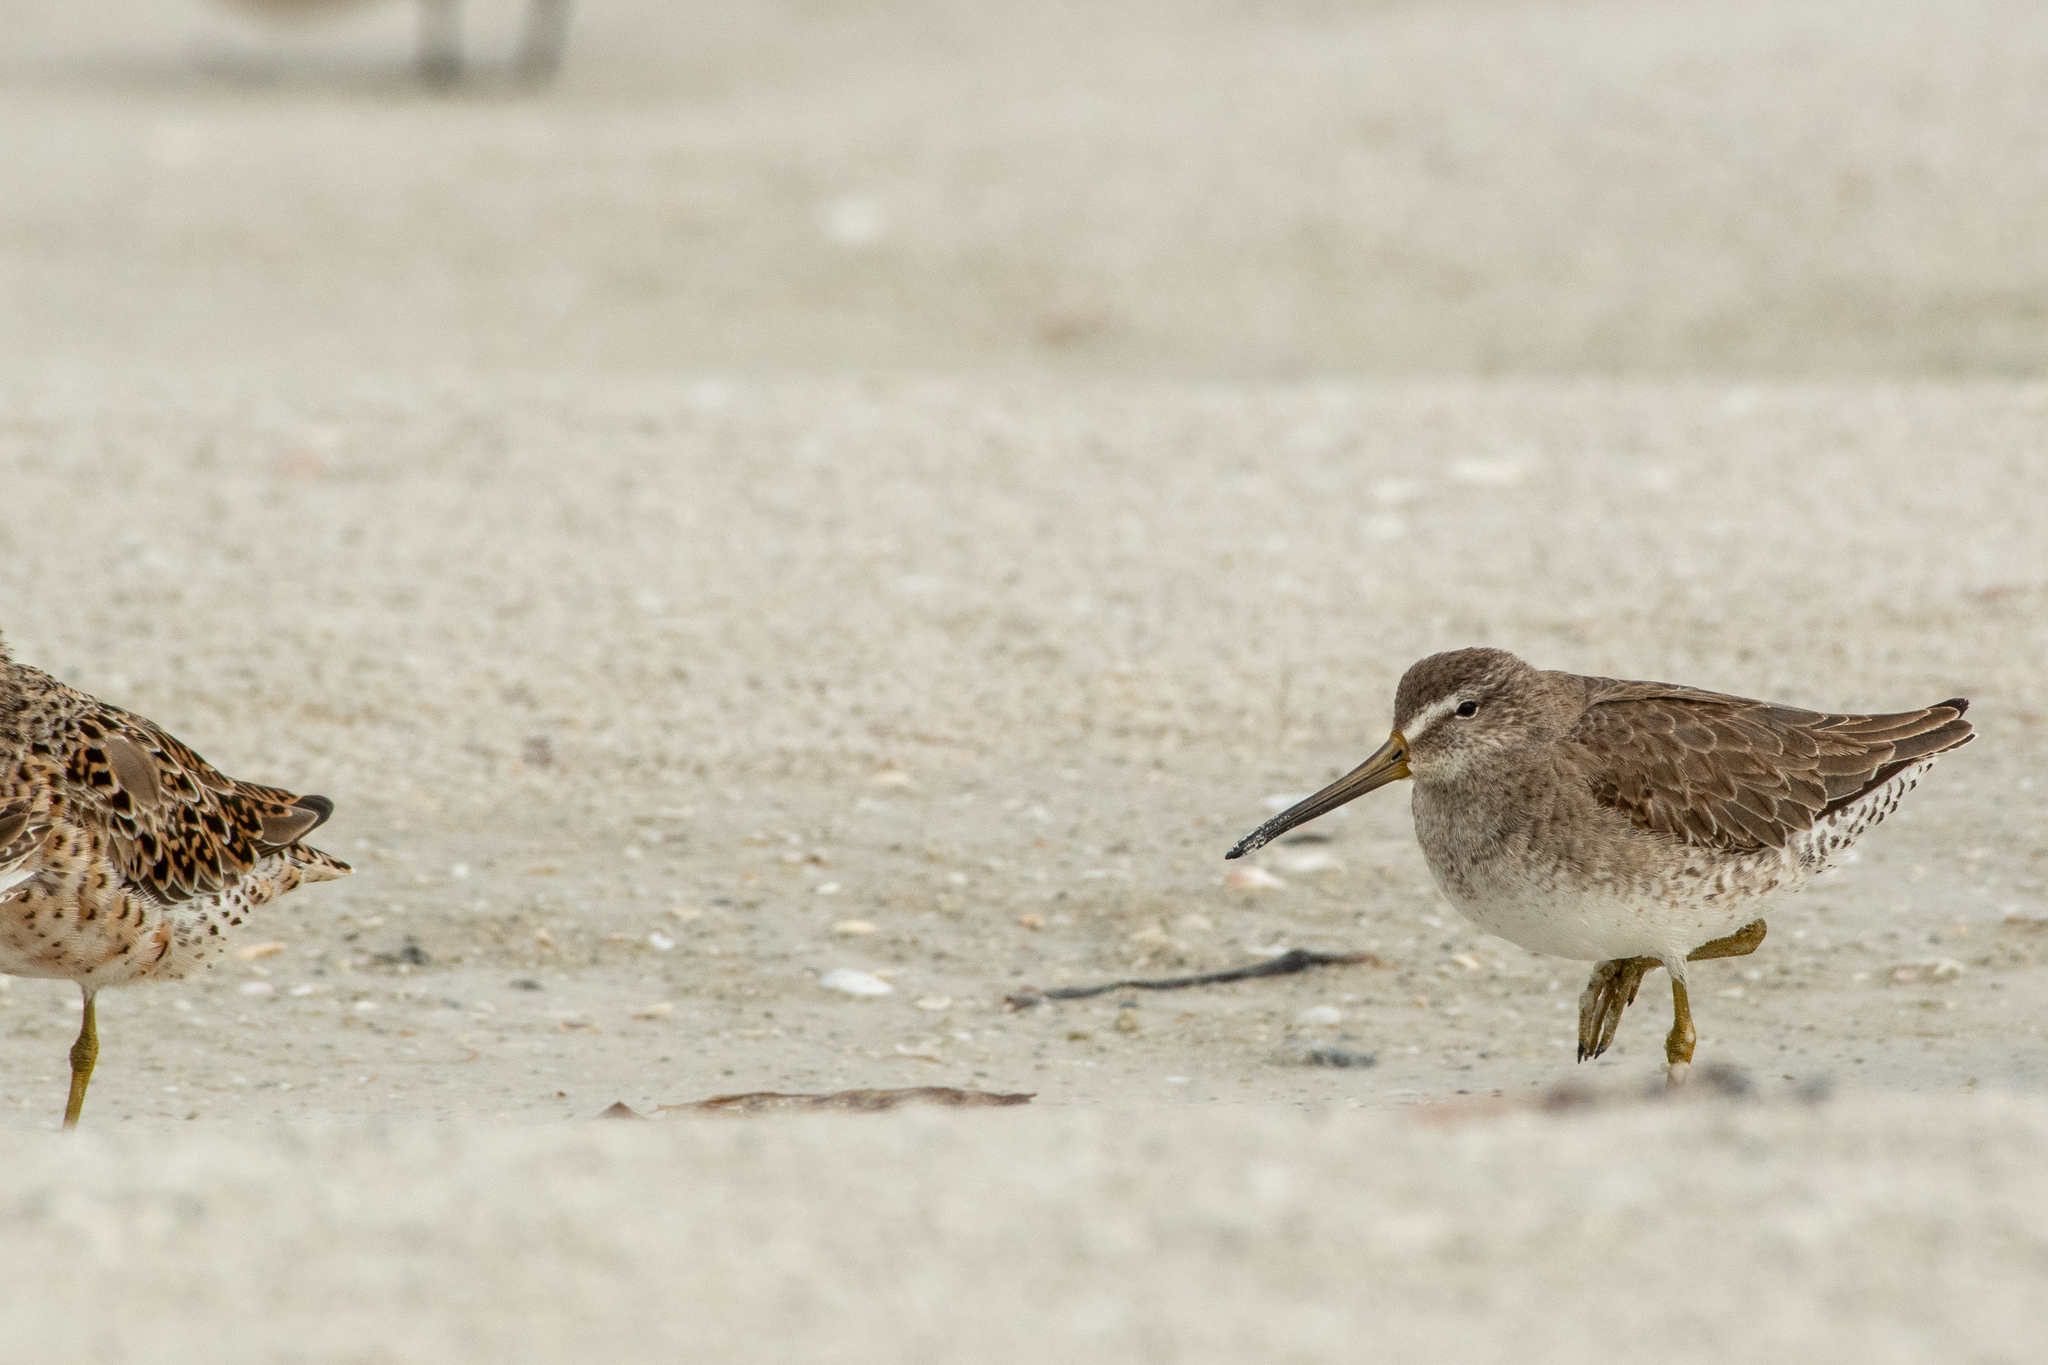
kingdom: Animalia
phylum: Chordata
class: Aves
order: Charadriiformes
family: Scolopacidae
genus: Limnodromus
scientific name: Limnodromus griseus
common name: Short-billed dowitcher
